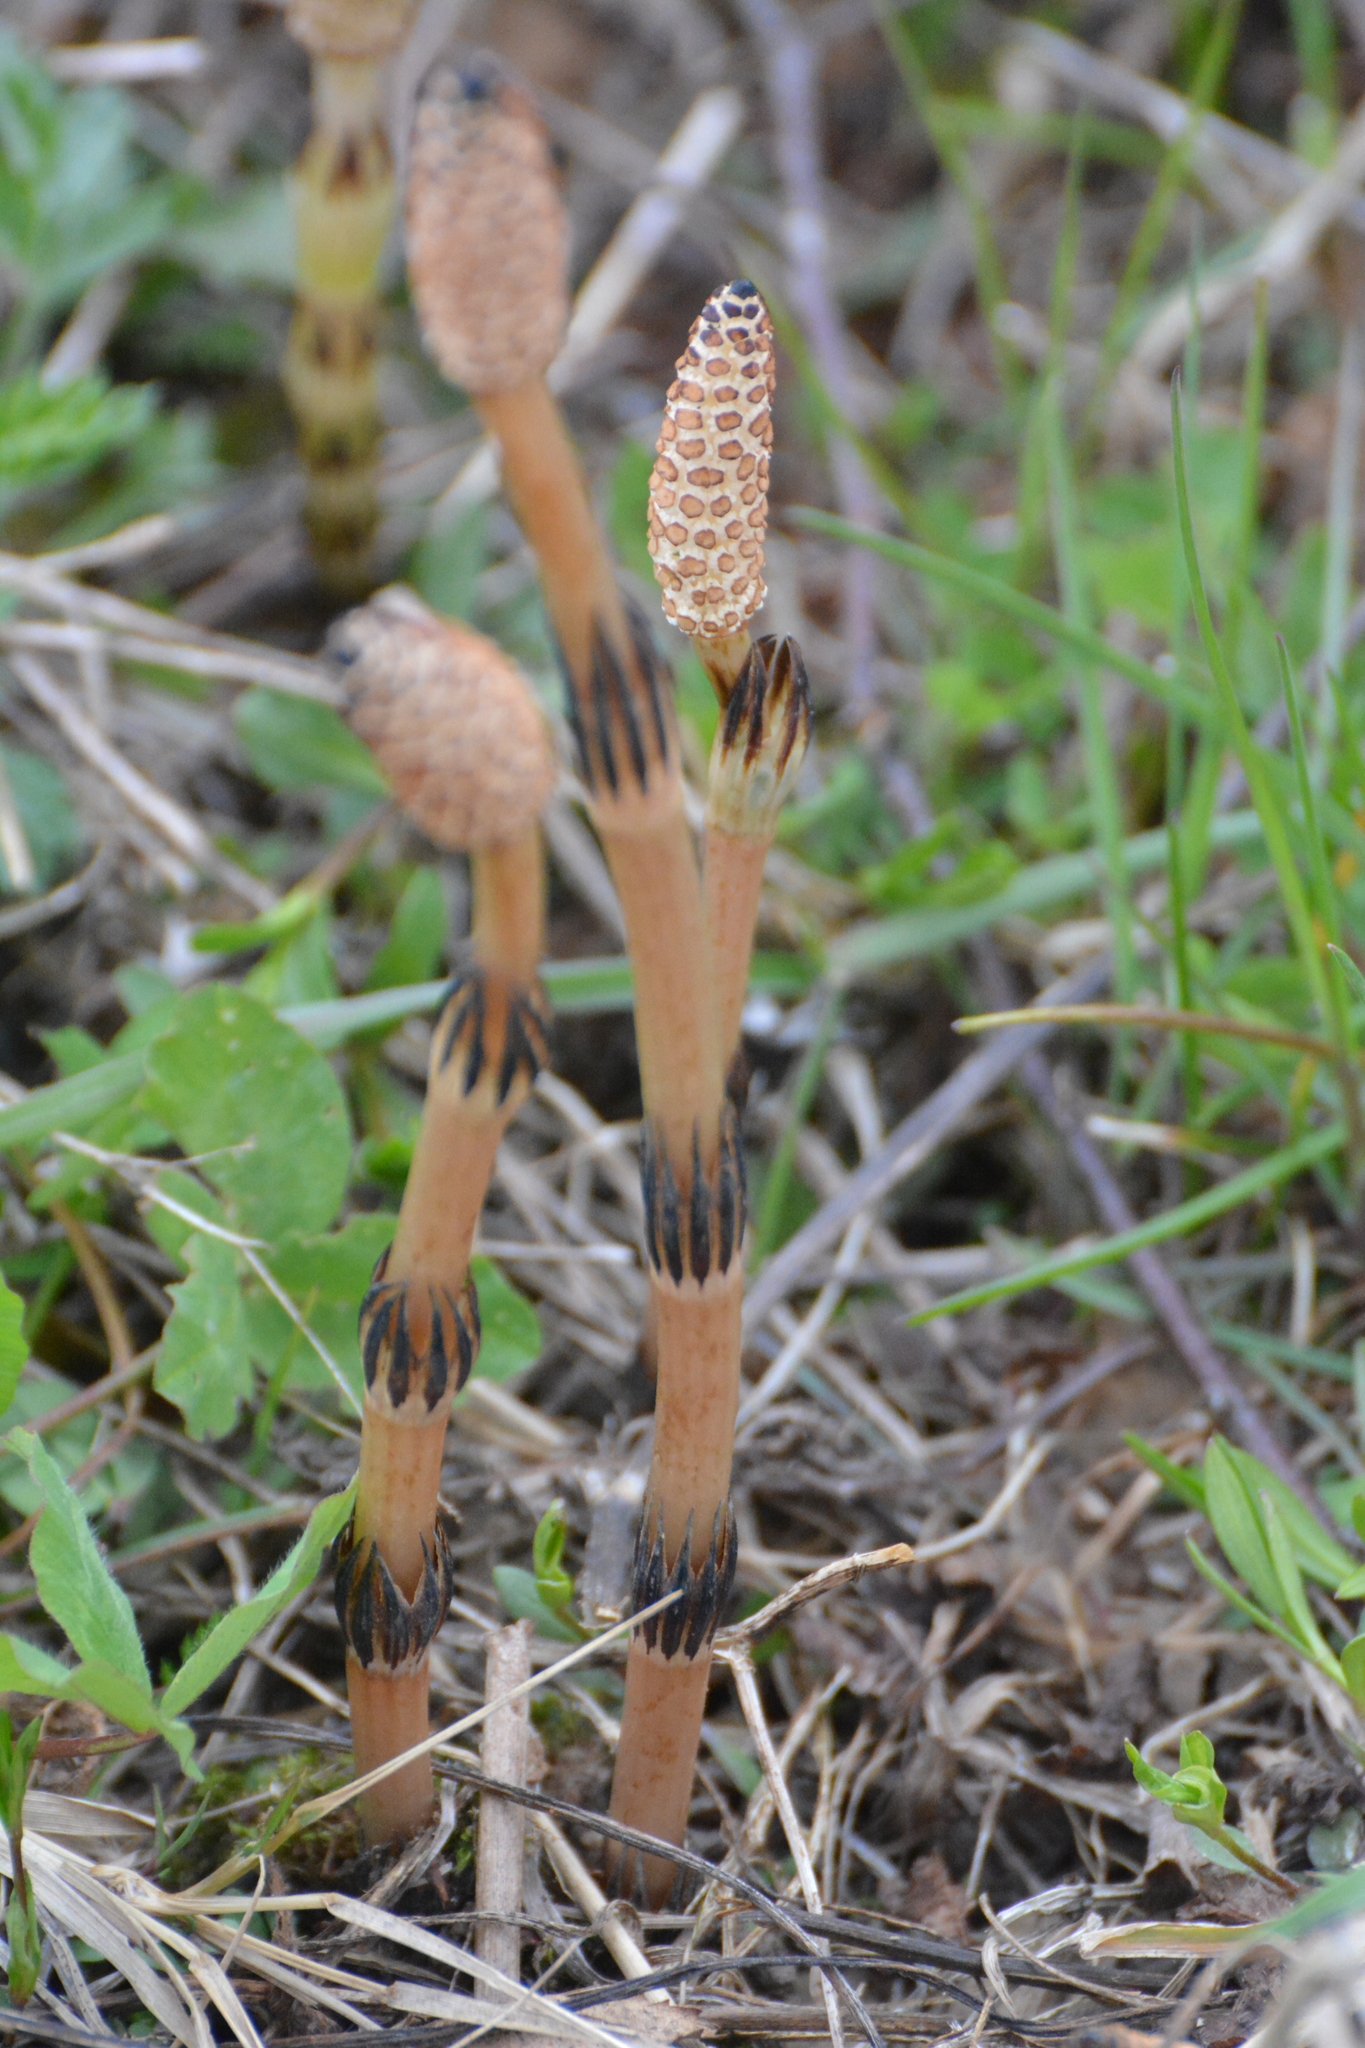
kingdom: Plantae
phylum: Tracheophyta
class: Polypodiopsida
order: Equisetales
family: Equisetaceae
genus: Equisetum
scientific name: Equisetum arvense
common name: Field horsetail
